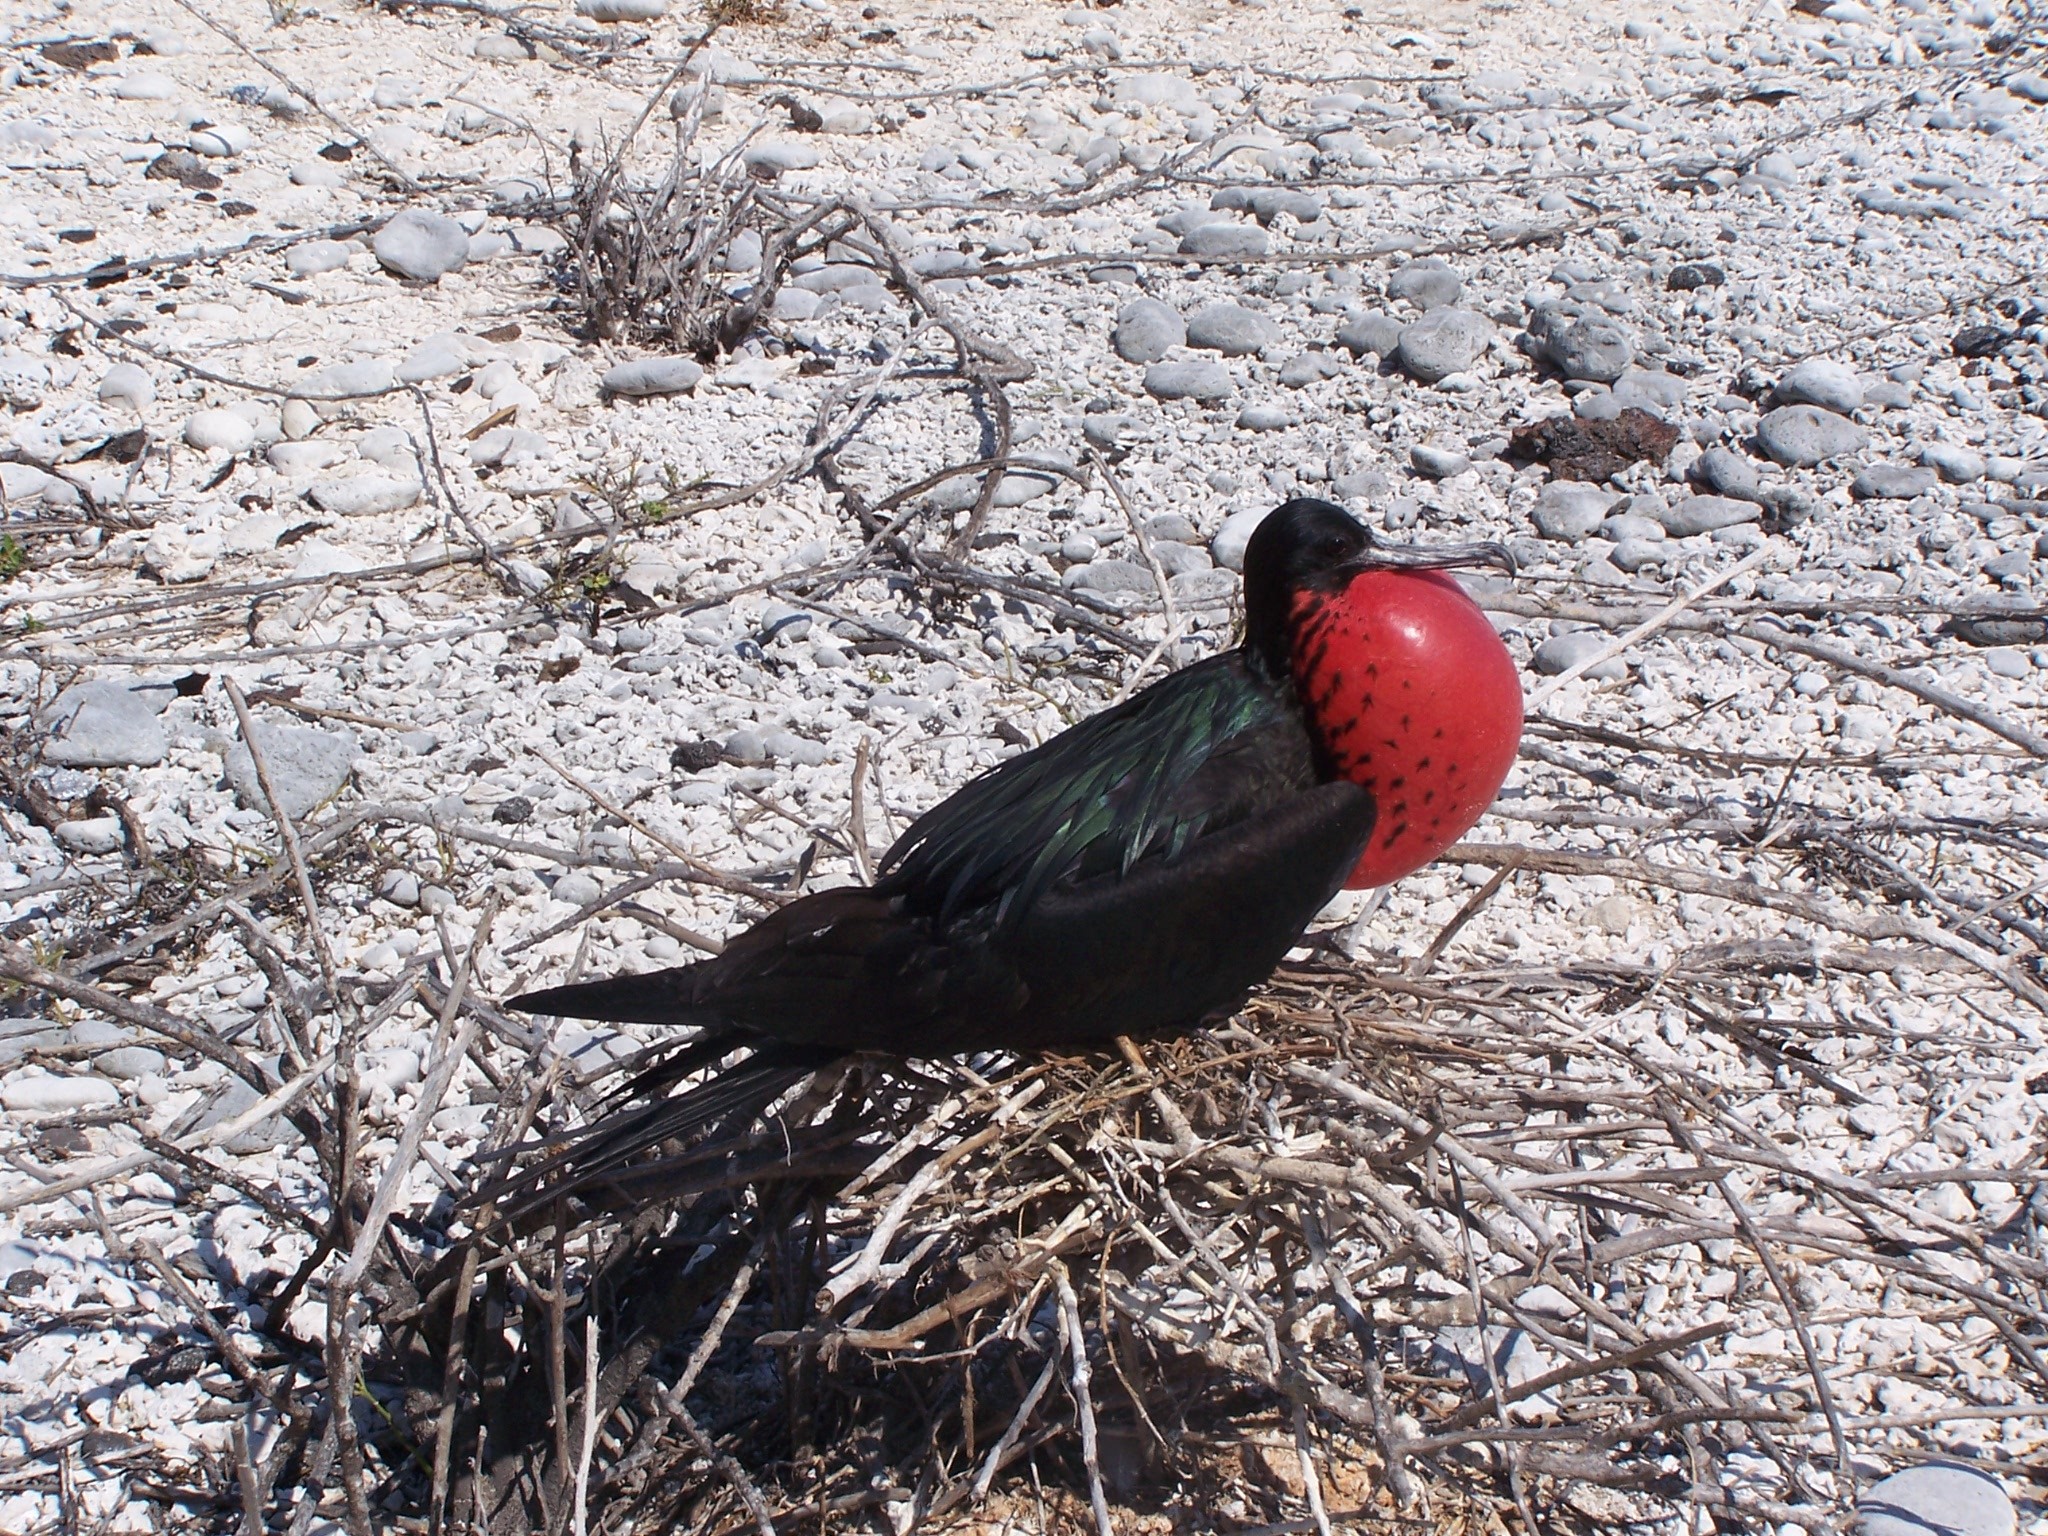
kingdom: Animalia
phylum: Chordata
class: Aves
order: Suliformes
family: Fregatidae
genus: Fregata
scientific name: Fregata minor
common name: Great frigatebird
